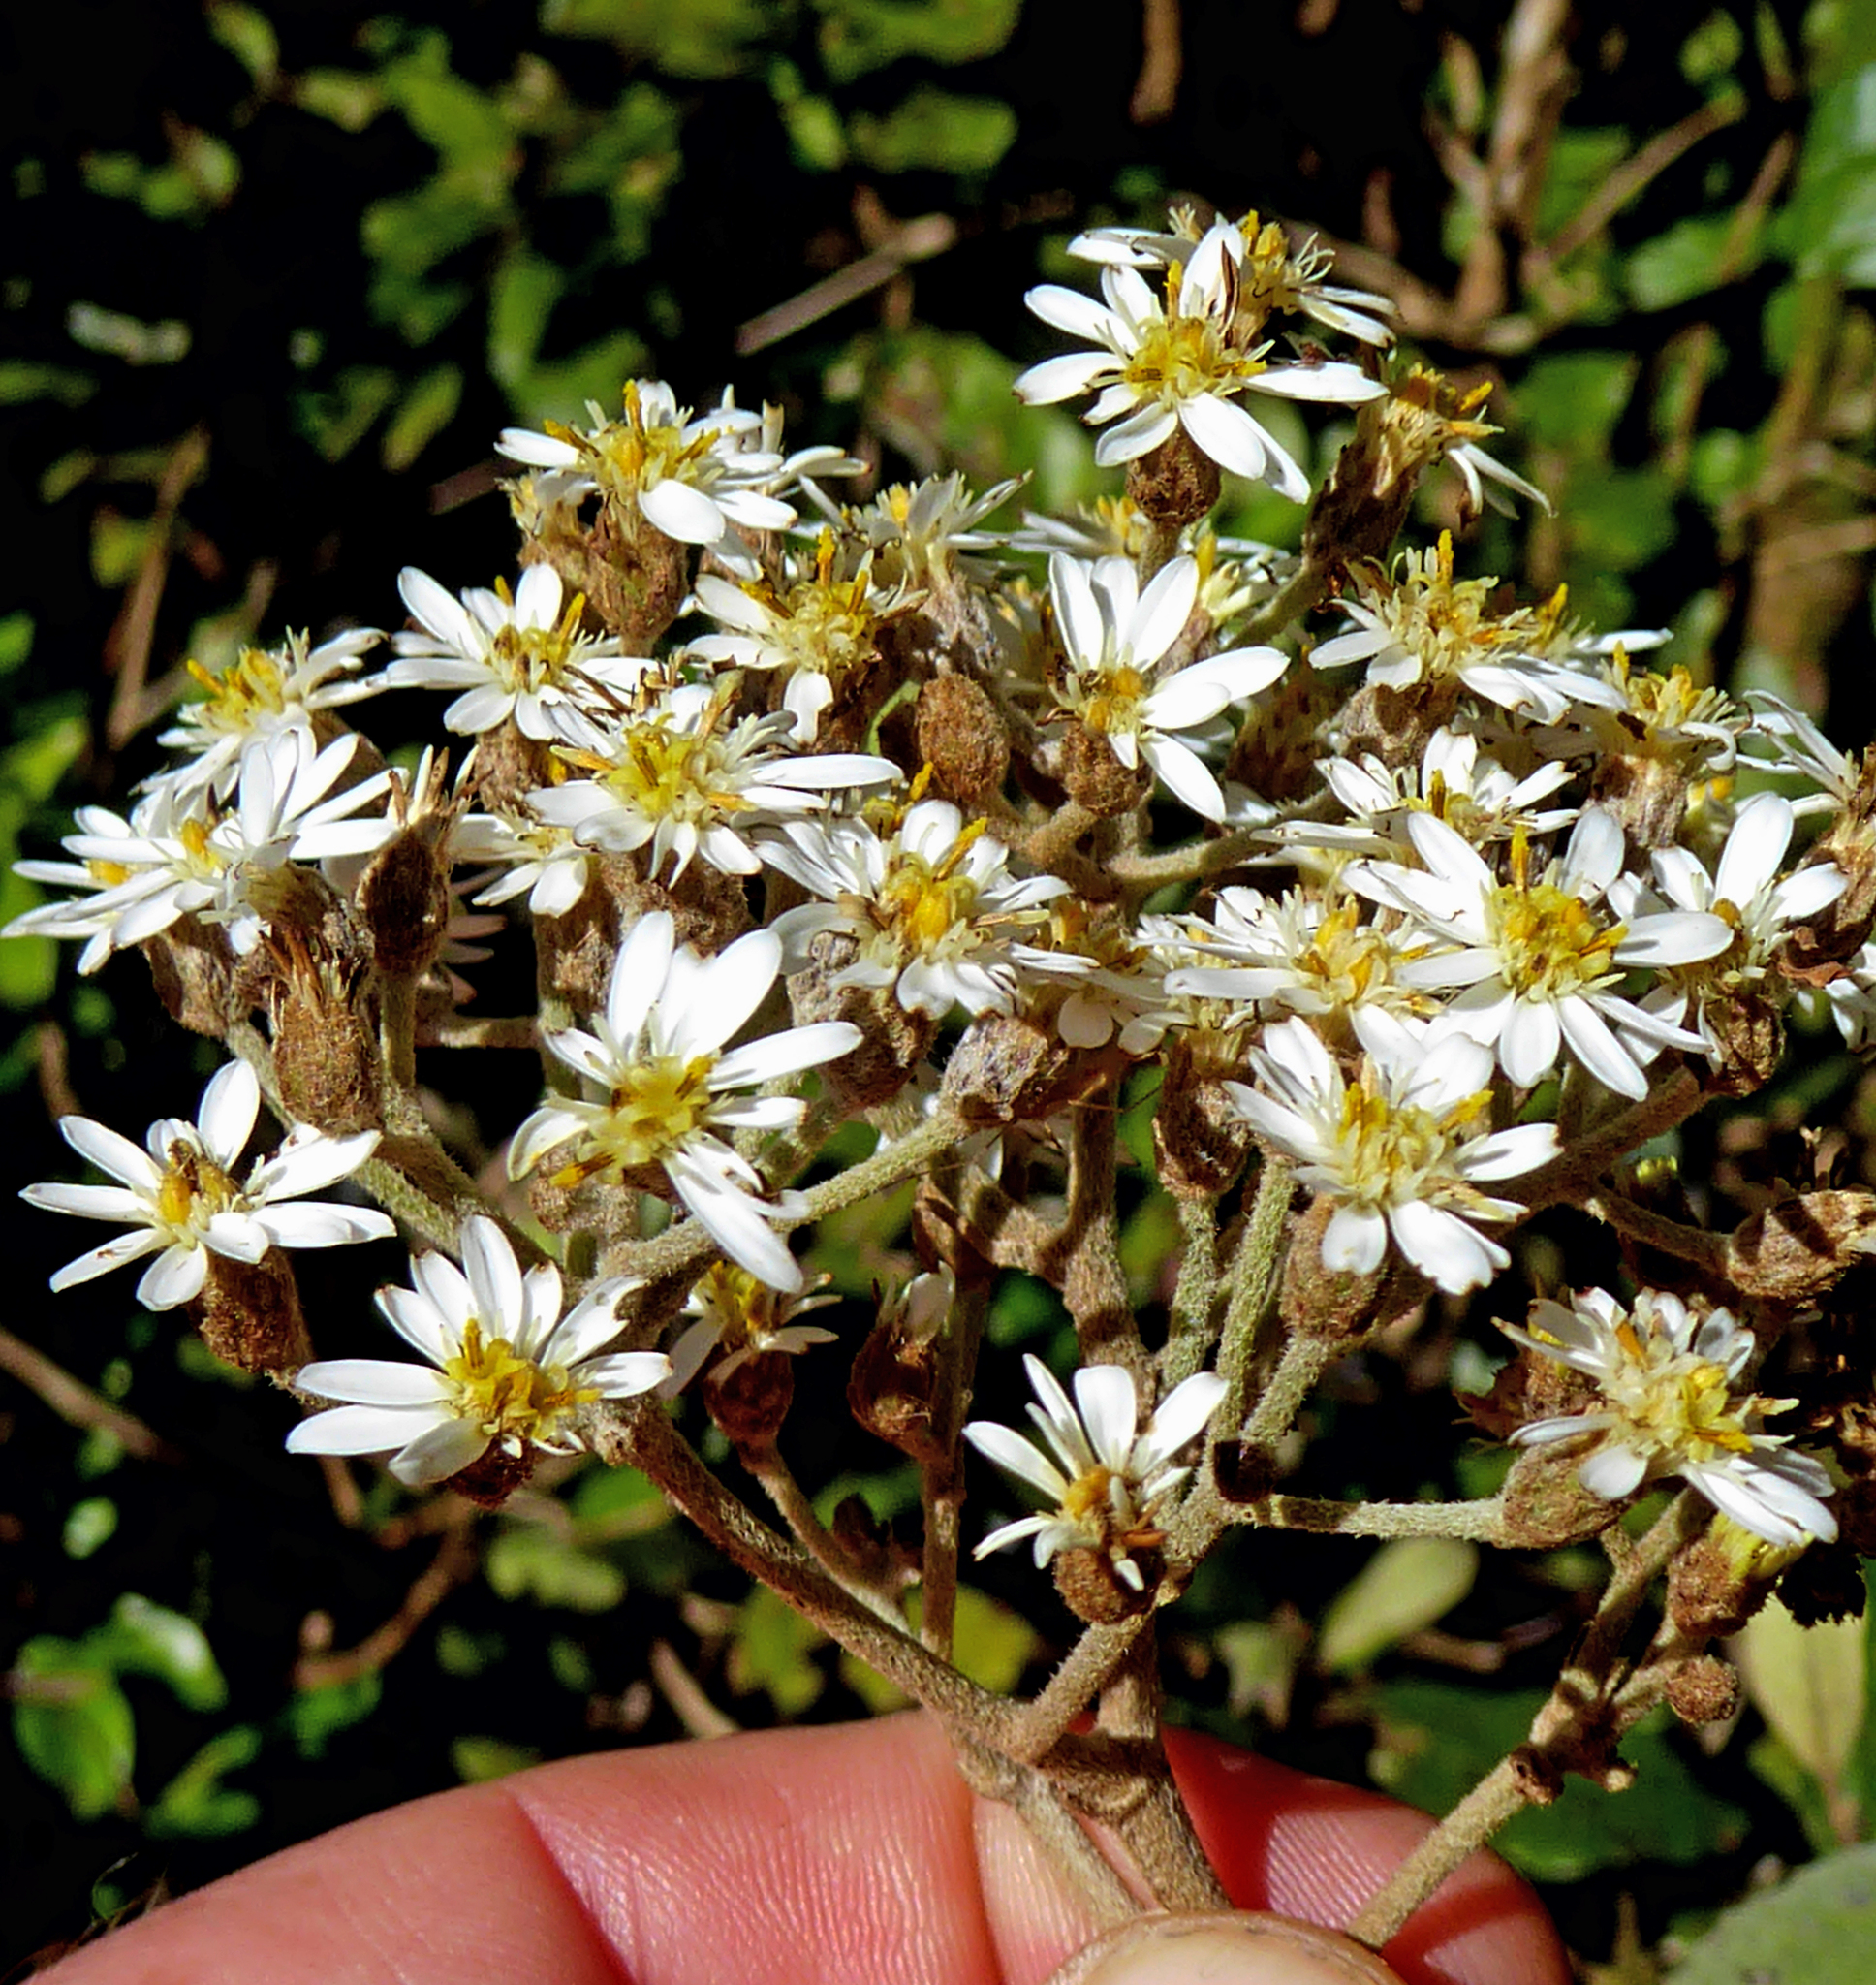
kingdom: Plantae
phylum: Tracheophyta
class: Magnoliopsida
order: Asterales
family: Asteraceae
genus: Olearia
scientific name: Olearia rani
